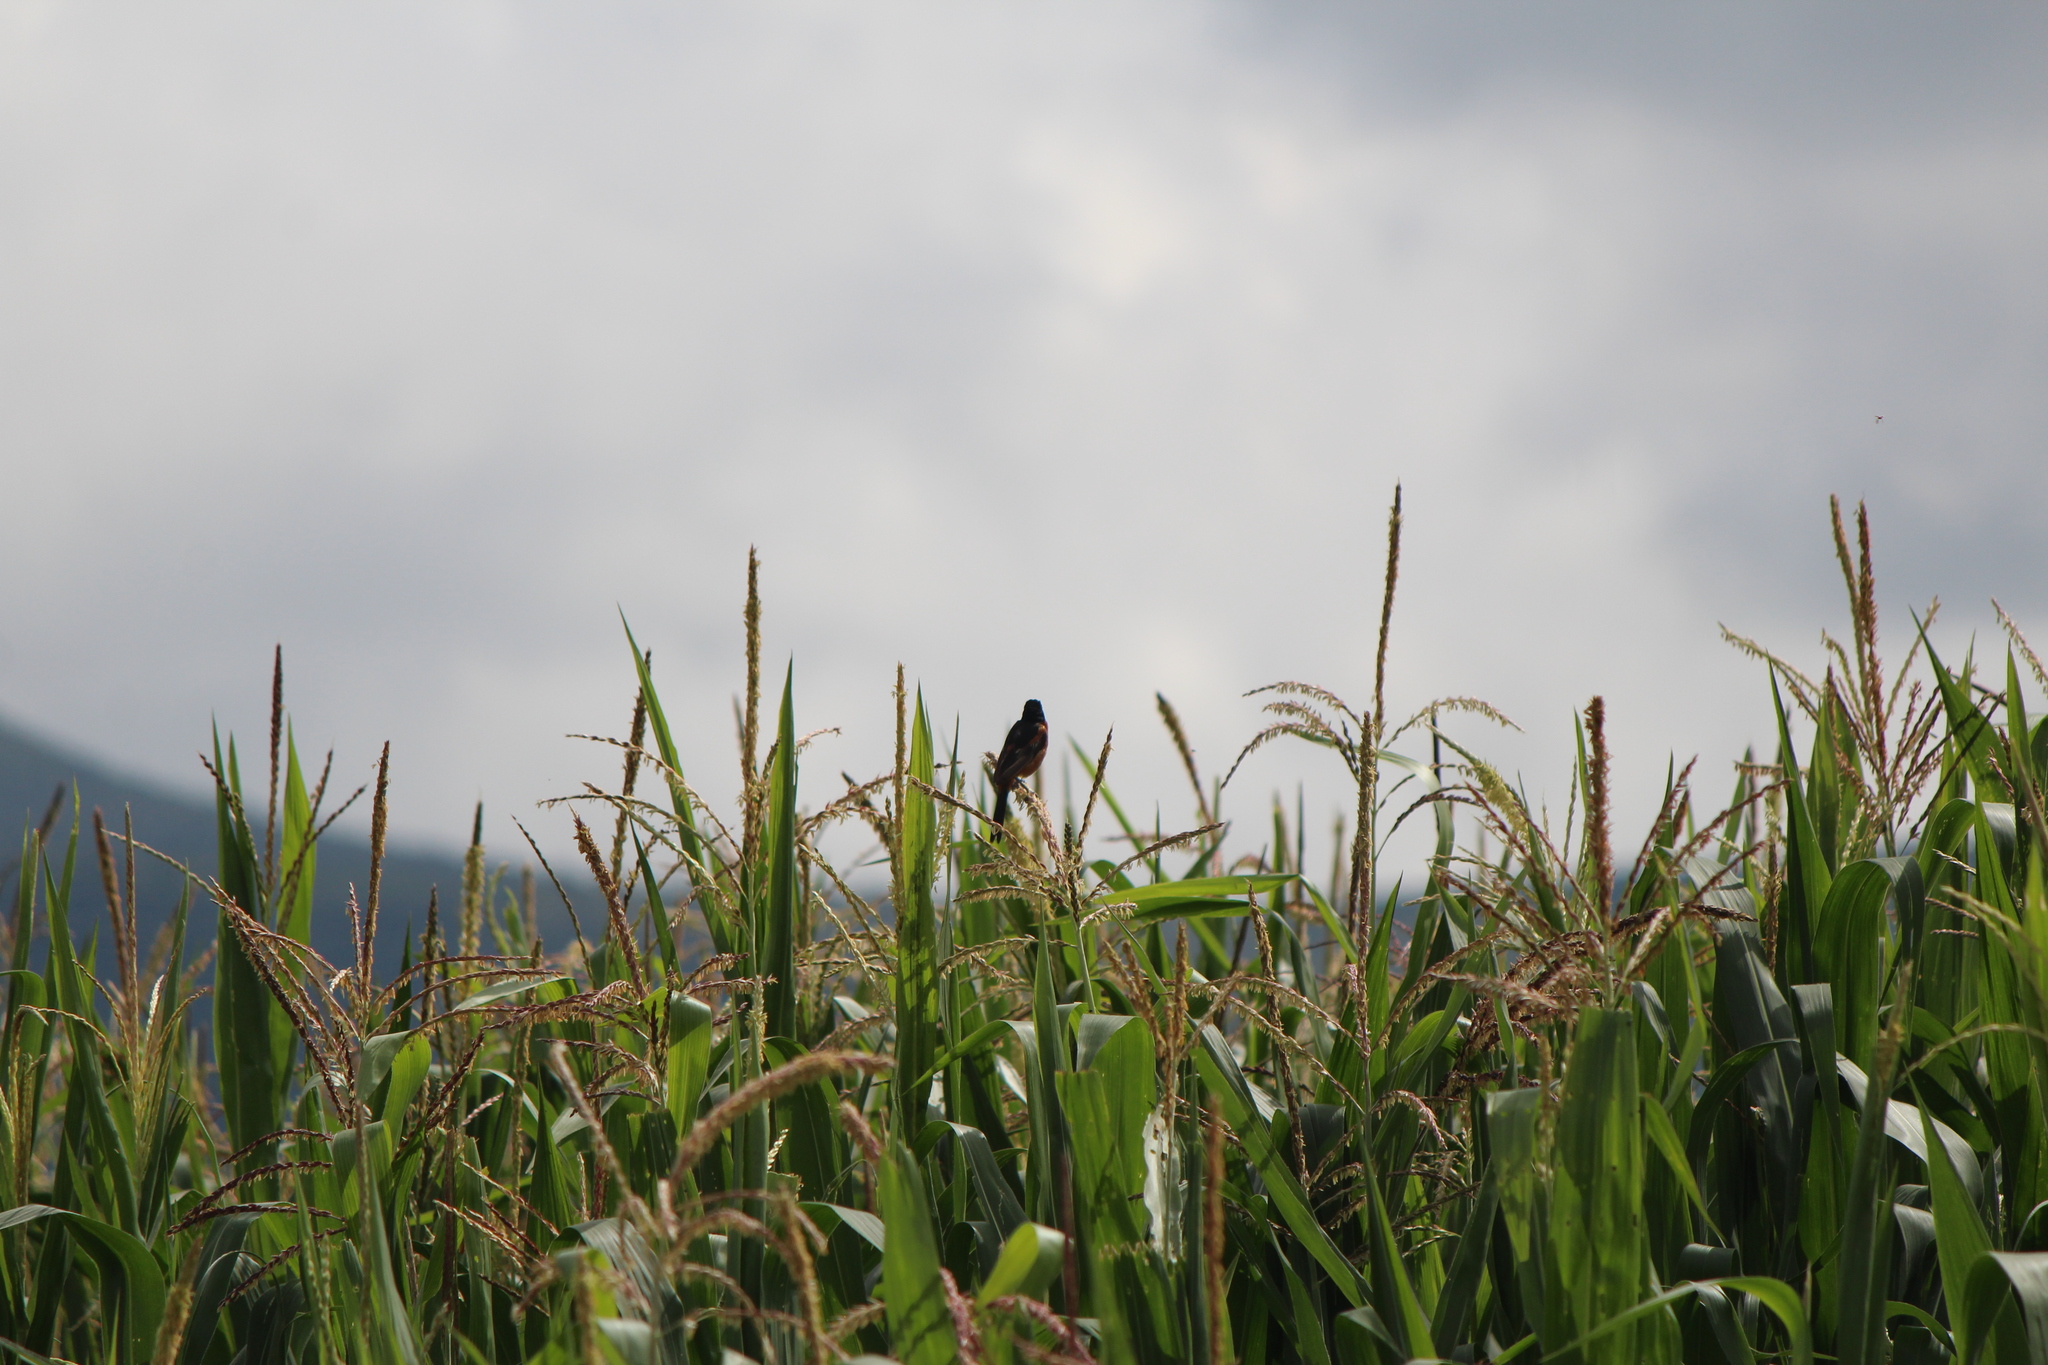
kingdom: Animalia
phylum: Chordata
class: Aves
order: Passeriformes
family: Icteridae
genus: Icterus
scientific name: Icterus spurius
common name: Orchard oriole
